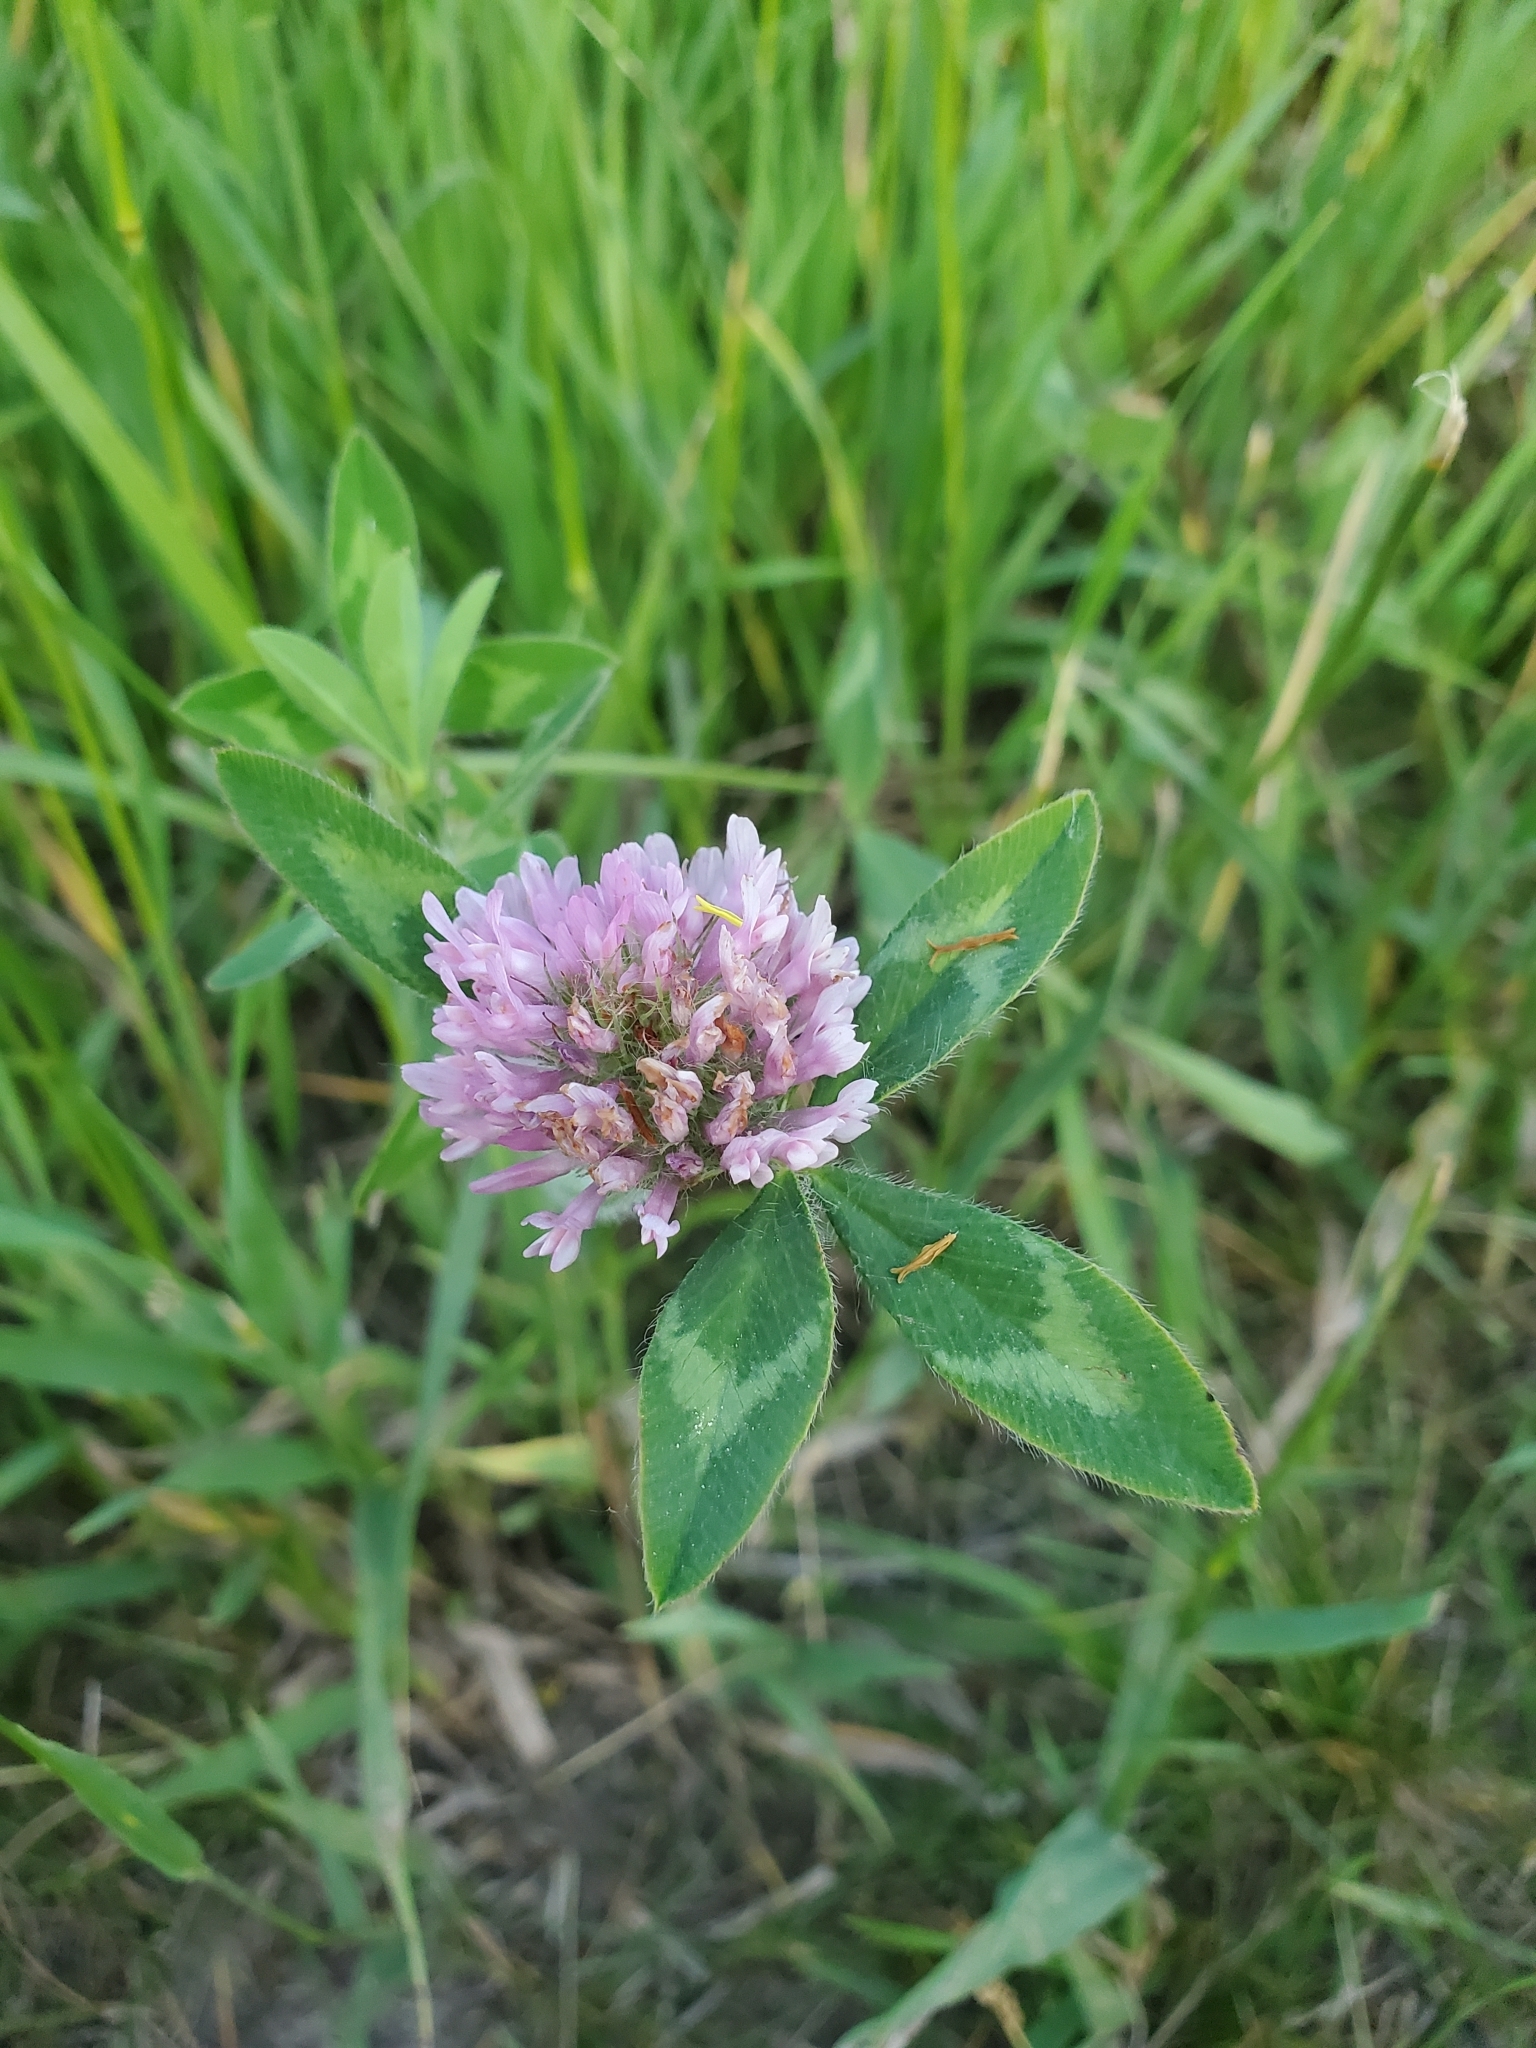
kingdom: Plantae
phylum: Tracheophyta
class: Magnoliopsida
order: Fabales
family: Fabaceae
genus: Trifolium
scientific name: Trifolium pratense
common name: Red clover
